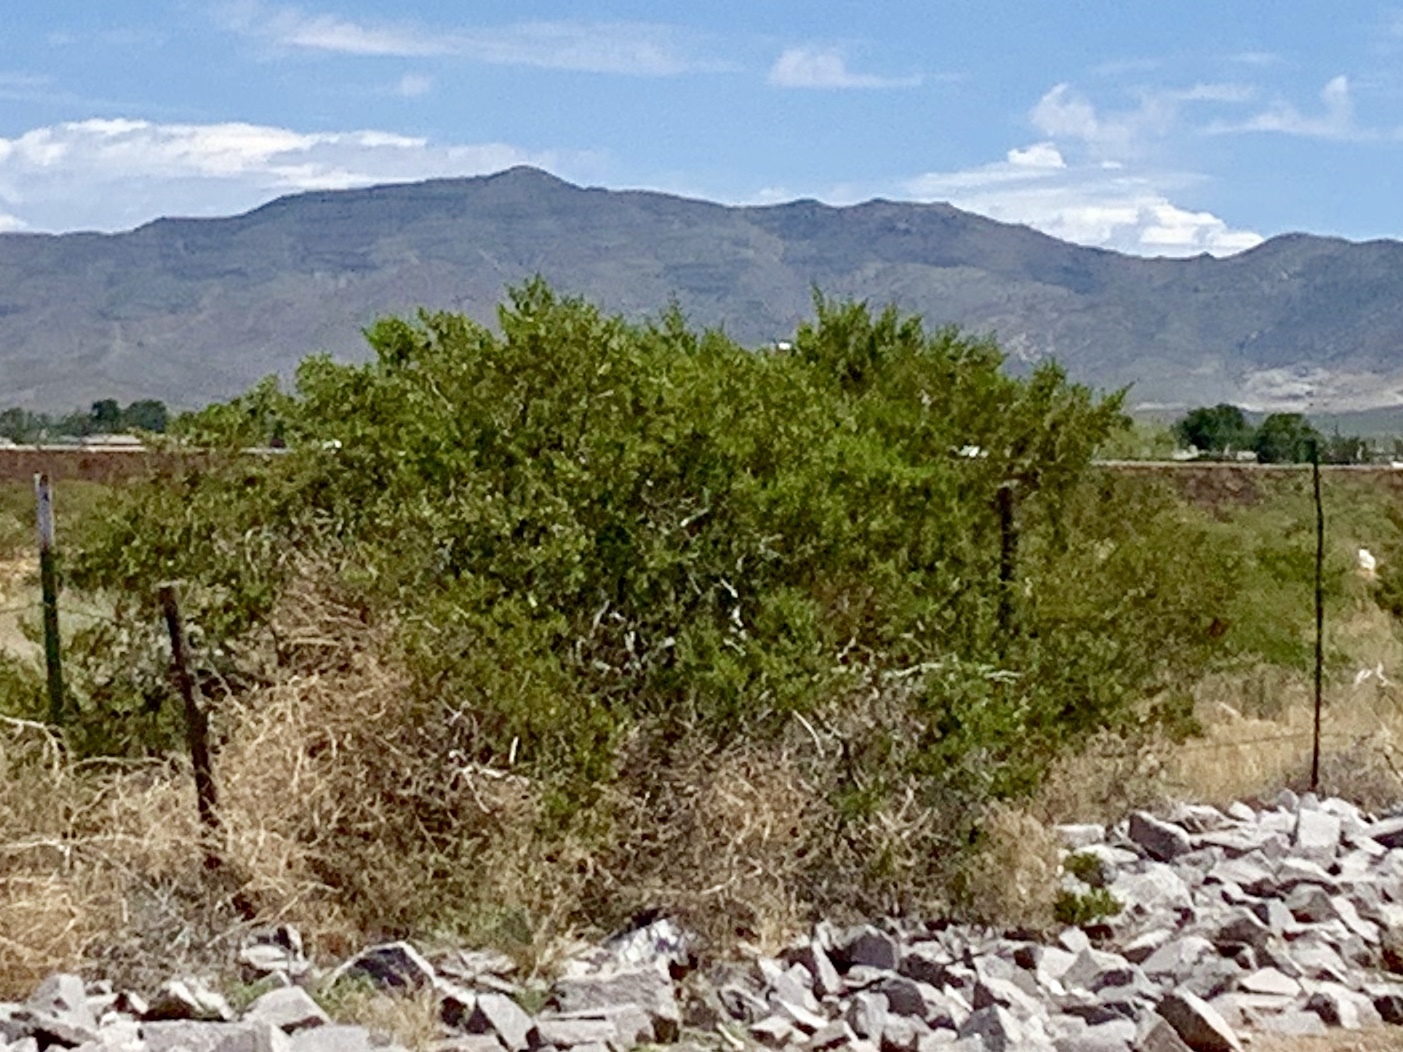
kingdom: Plantae
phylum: Tracheophyta
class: Magnoliopsida
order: Zygophyllales
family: Zygophyllaceae
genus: Larrea
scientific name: Larrea tridentata
